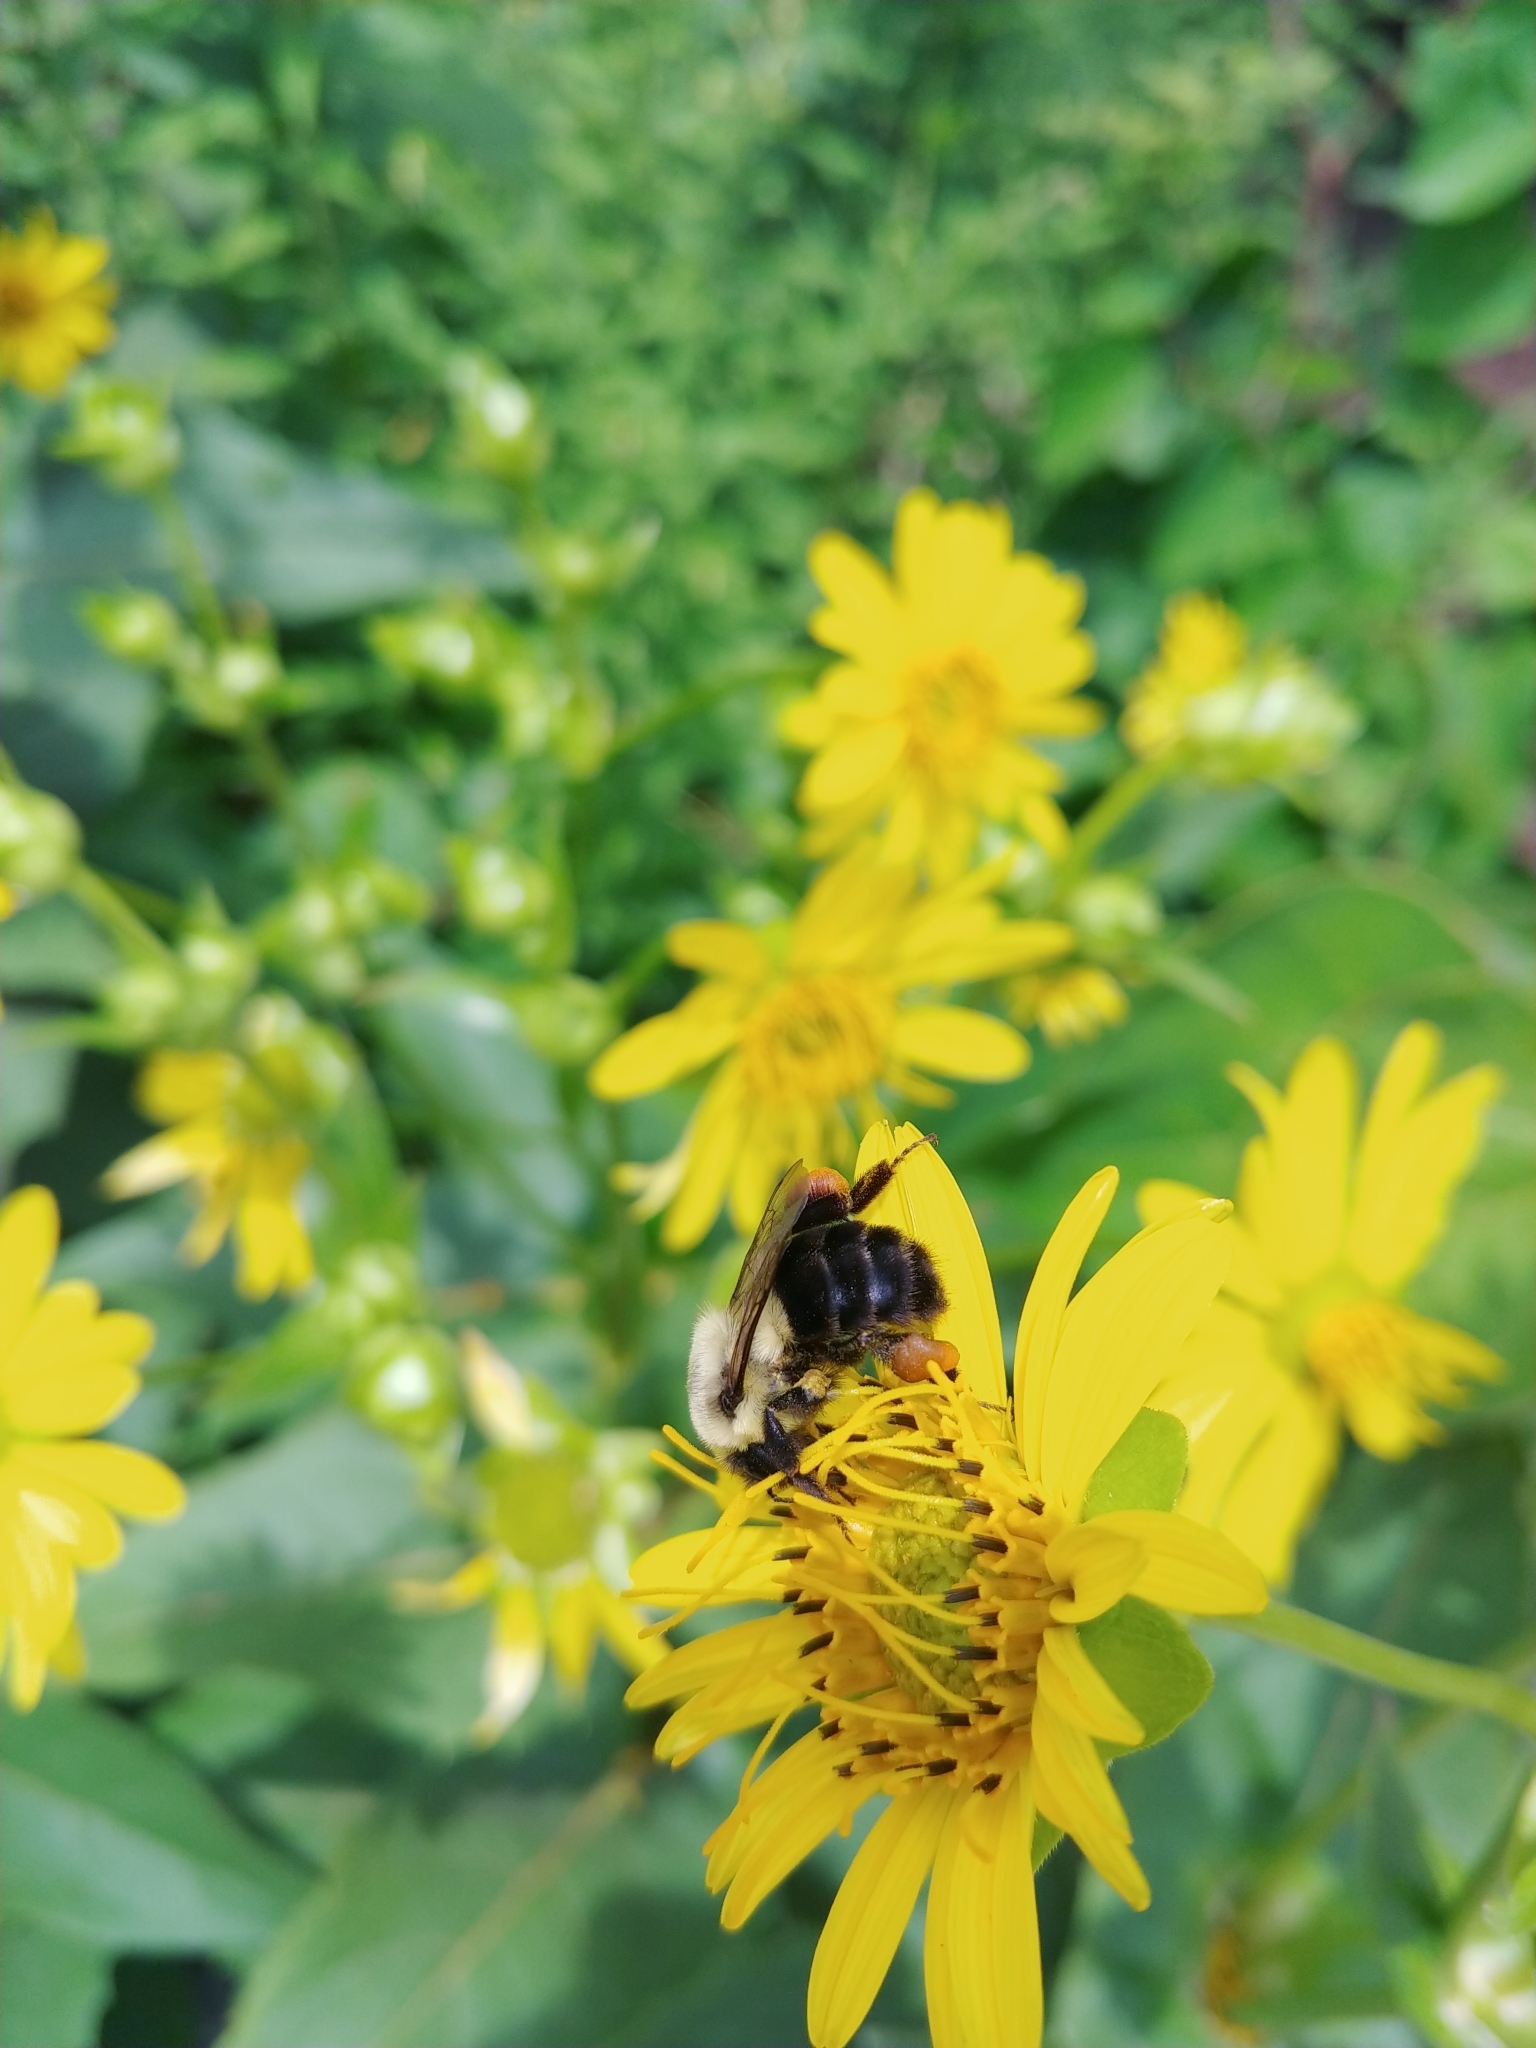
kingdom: Animalia
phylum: Arthropoda
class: Insecta
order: Hymenoptera
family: Apidae
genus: Bombus
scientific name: Bombus impatiens
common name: Common eastern bumble bee
